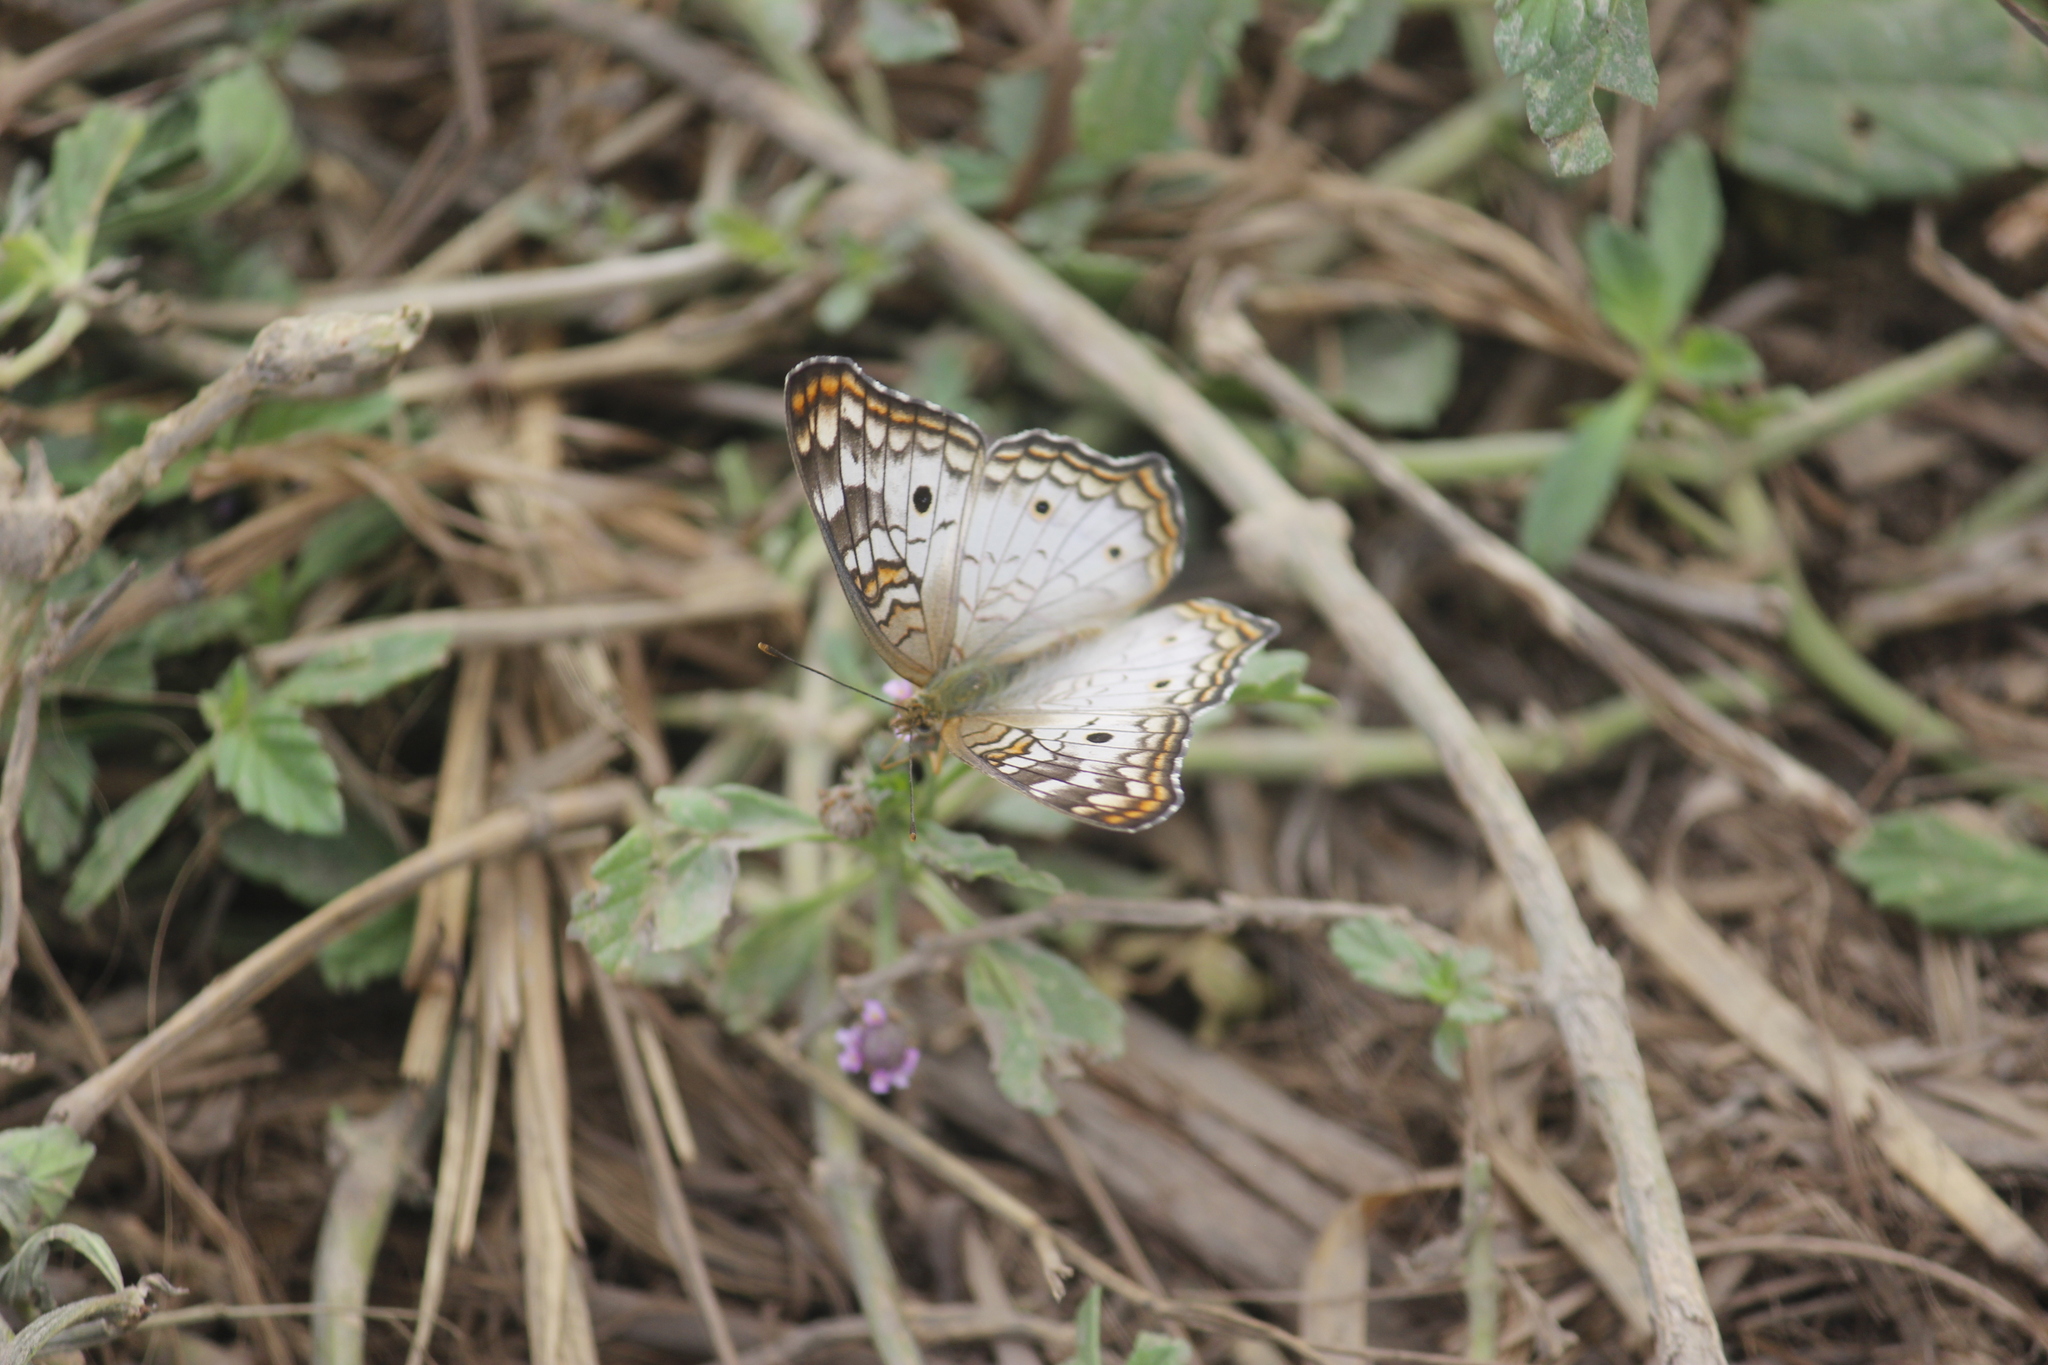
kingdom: Animalia
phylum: Arthropoda
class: Insecta
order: Lepidoptera
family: Nymphalidae
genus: Anartia
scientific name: Anartia jatrophae
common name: White peacock
